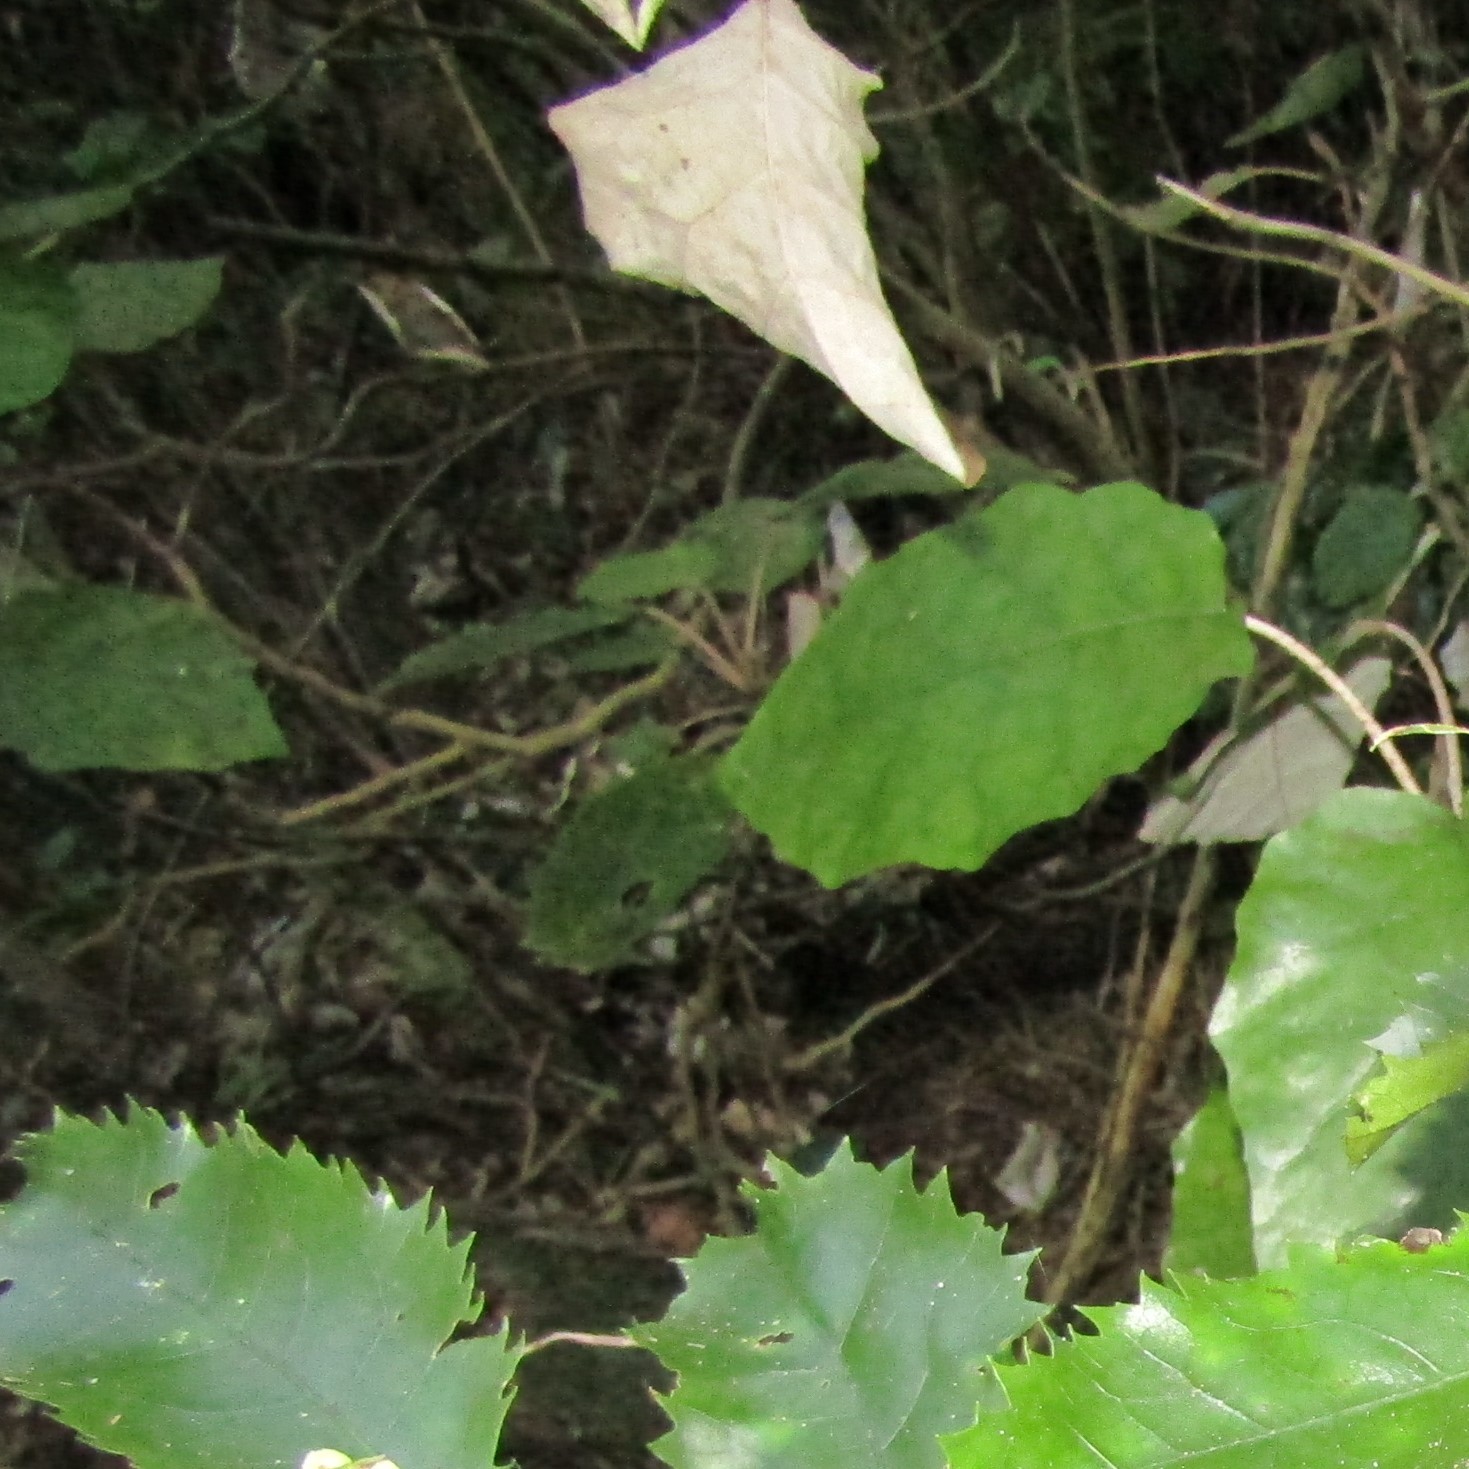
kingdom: Plantae
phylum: Tracheophyta
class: Magnoliopsida
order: Asterales
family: Asteraceae
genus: Brachyglottis
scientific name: Brachyglottis repanda
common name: Hedge ragwort
